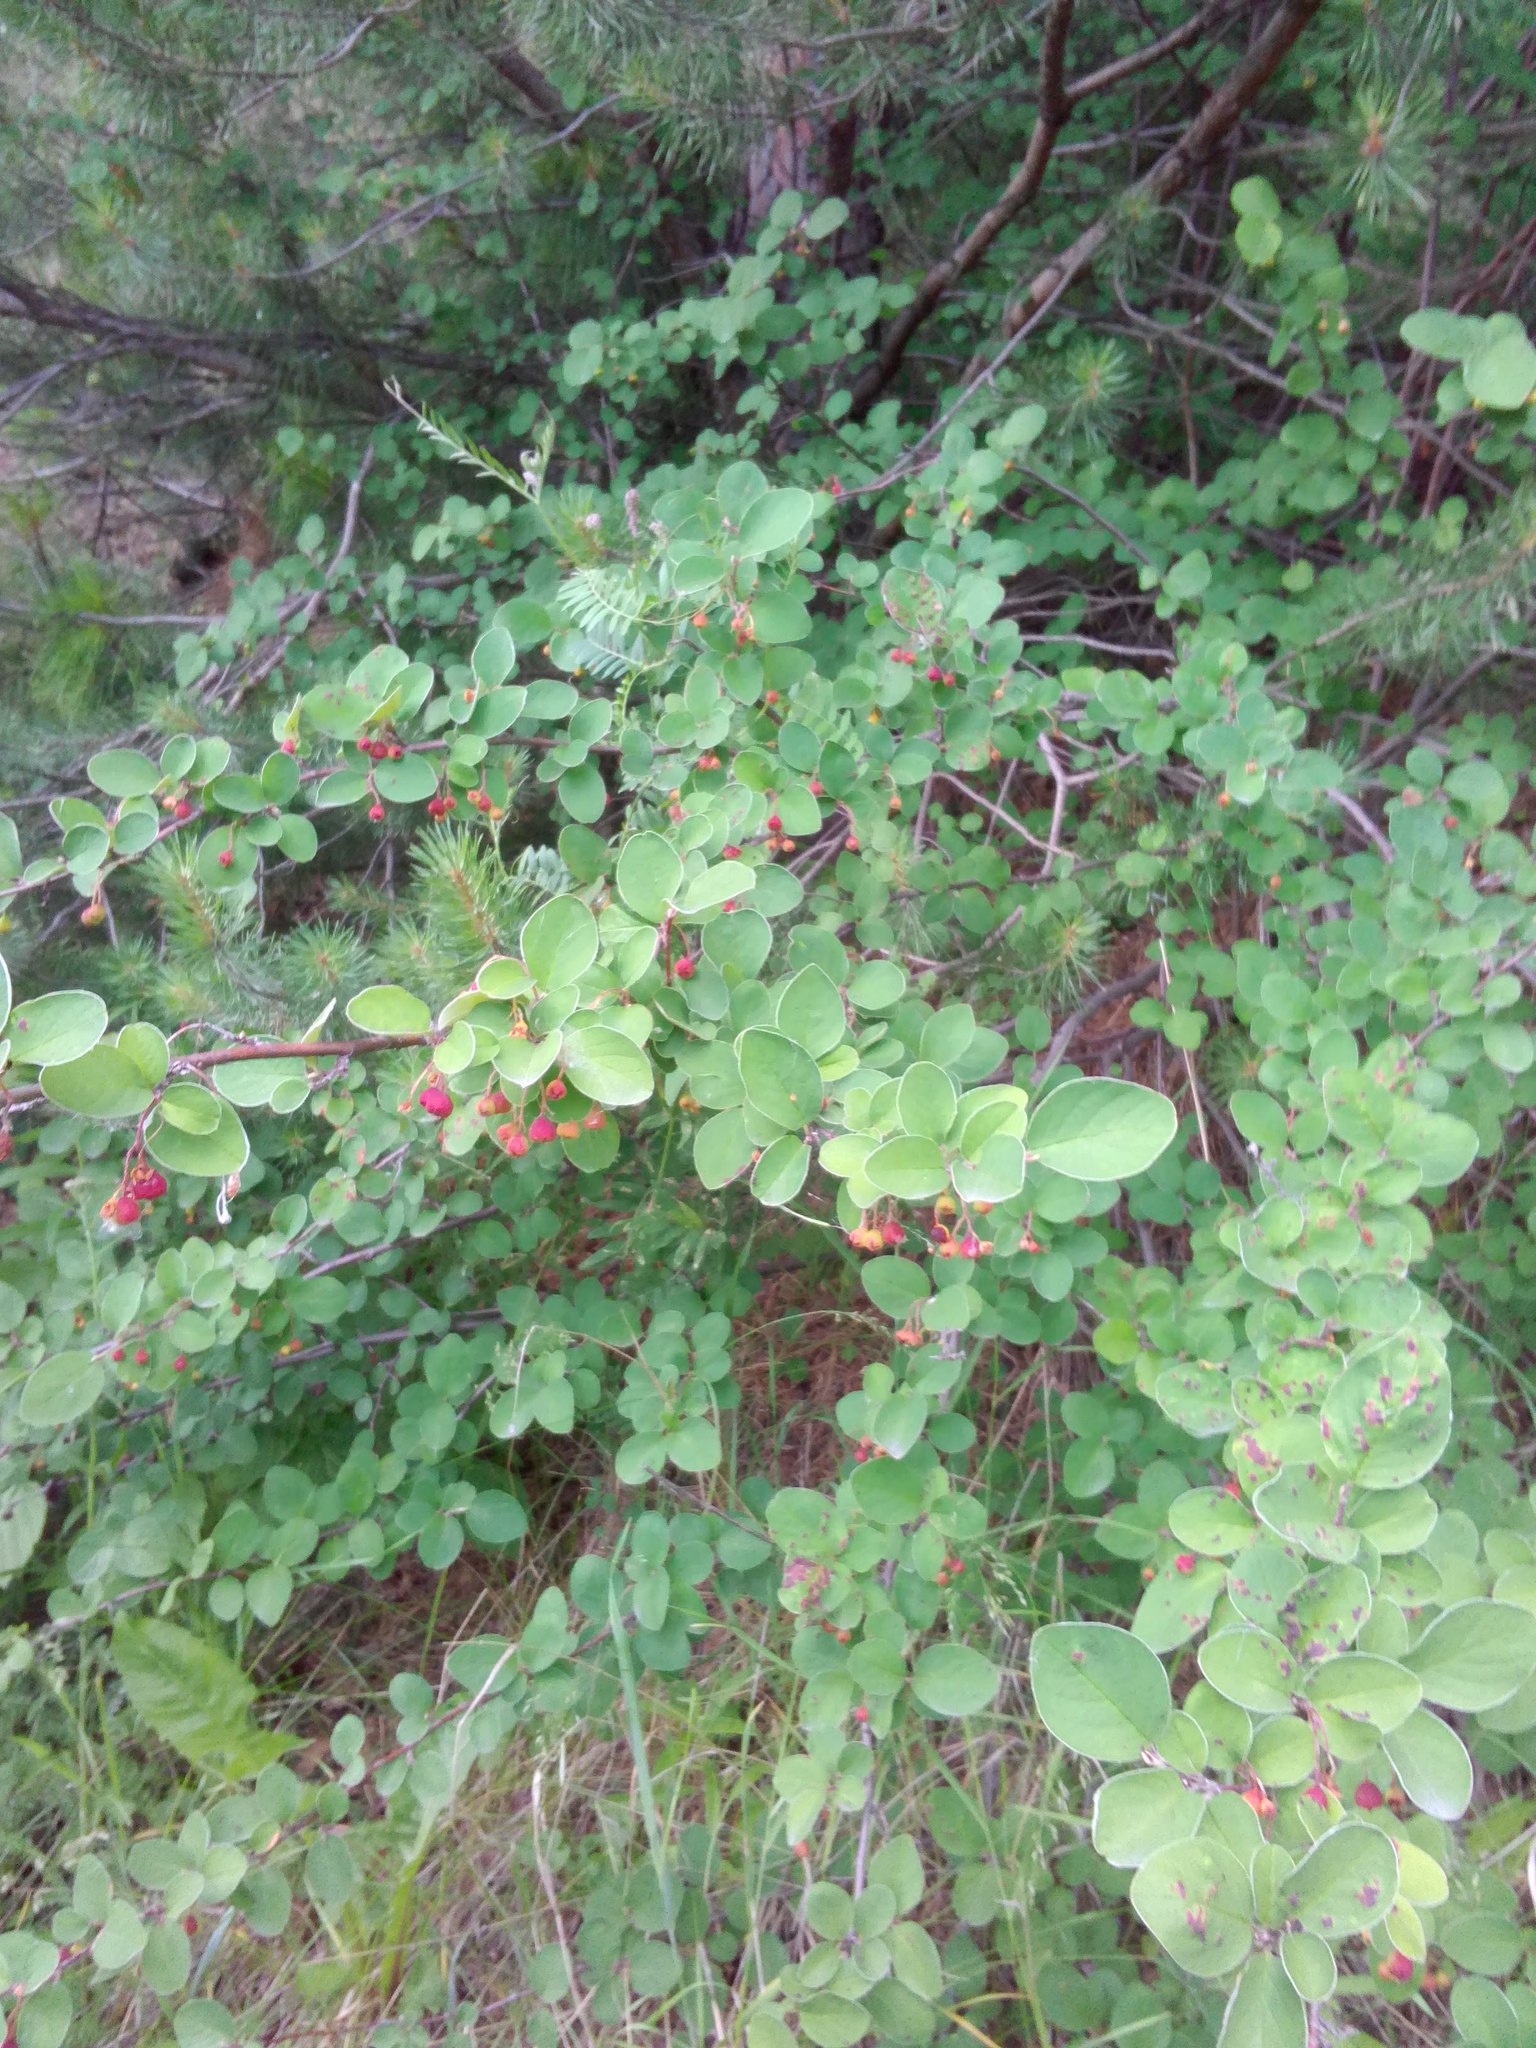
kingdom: Plantae
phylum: Tracheophyta
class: Magnoliopsida
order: Rosales
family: Rosaceae
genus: Cotoneaster
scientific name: Cotoneaster melanocarpus
